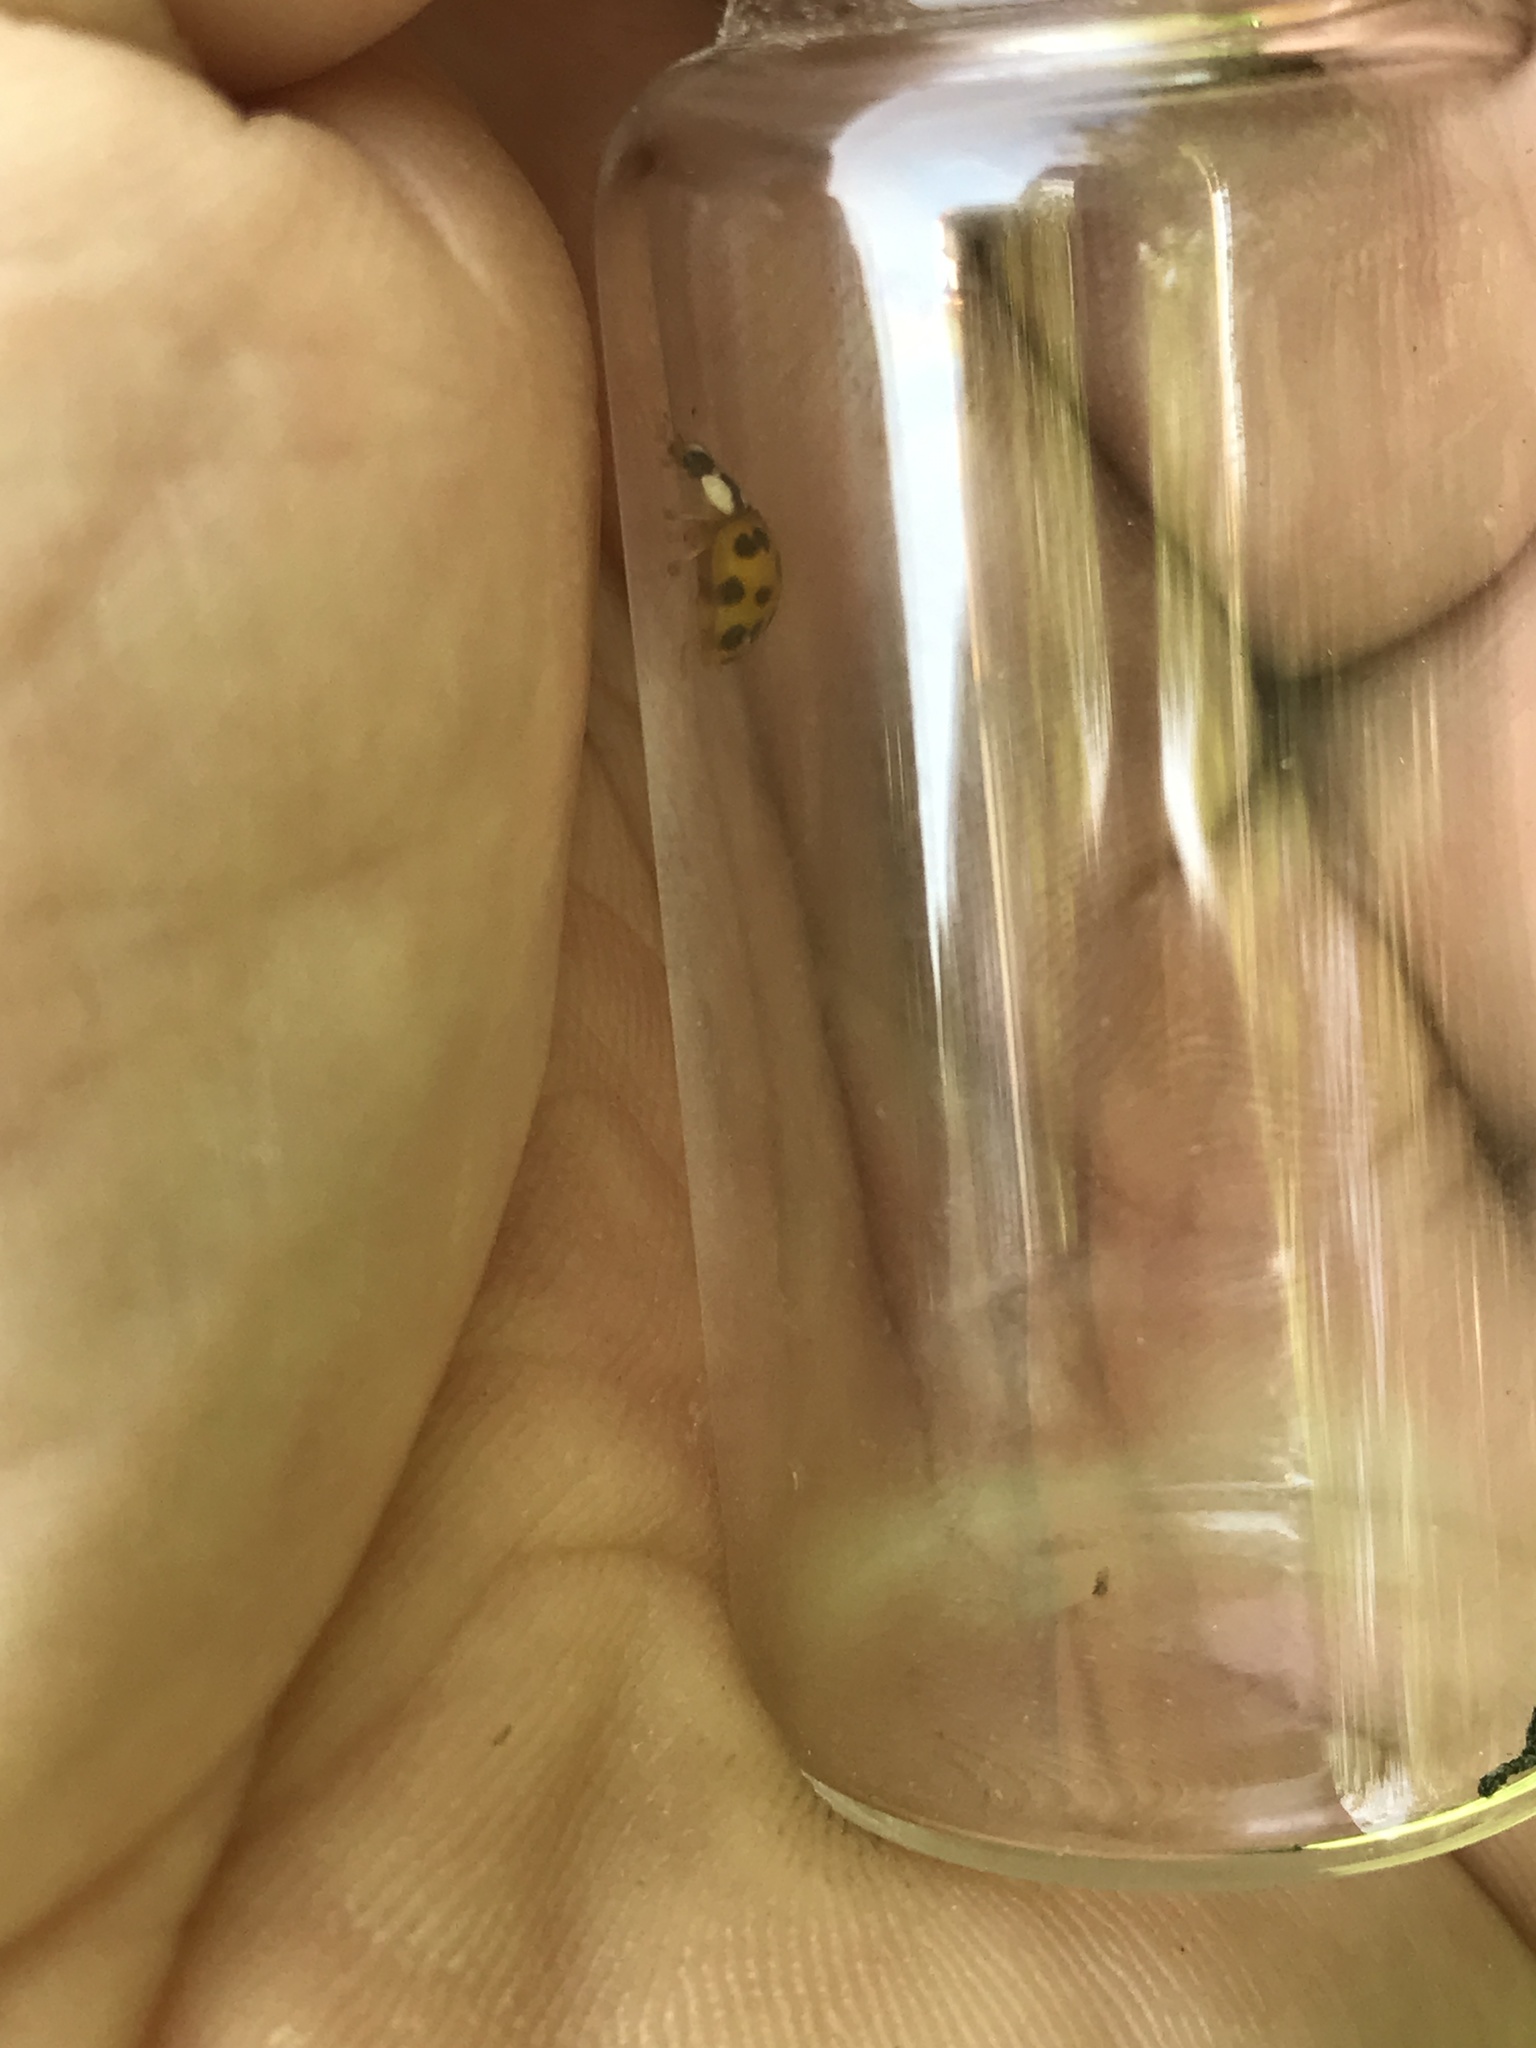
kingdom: Animalia
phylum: Arthropoda
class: Insecta
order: Coleoptera
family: Coccinellidae
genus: Harmonia
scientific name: Harmonia axyridis
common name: Harlequin ladybird
